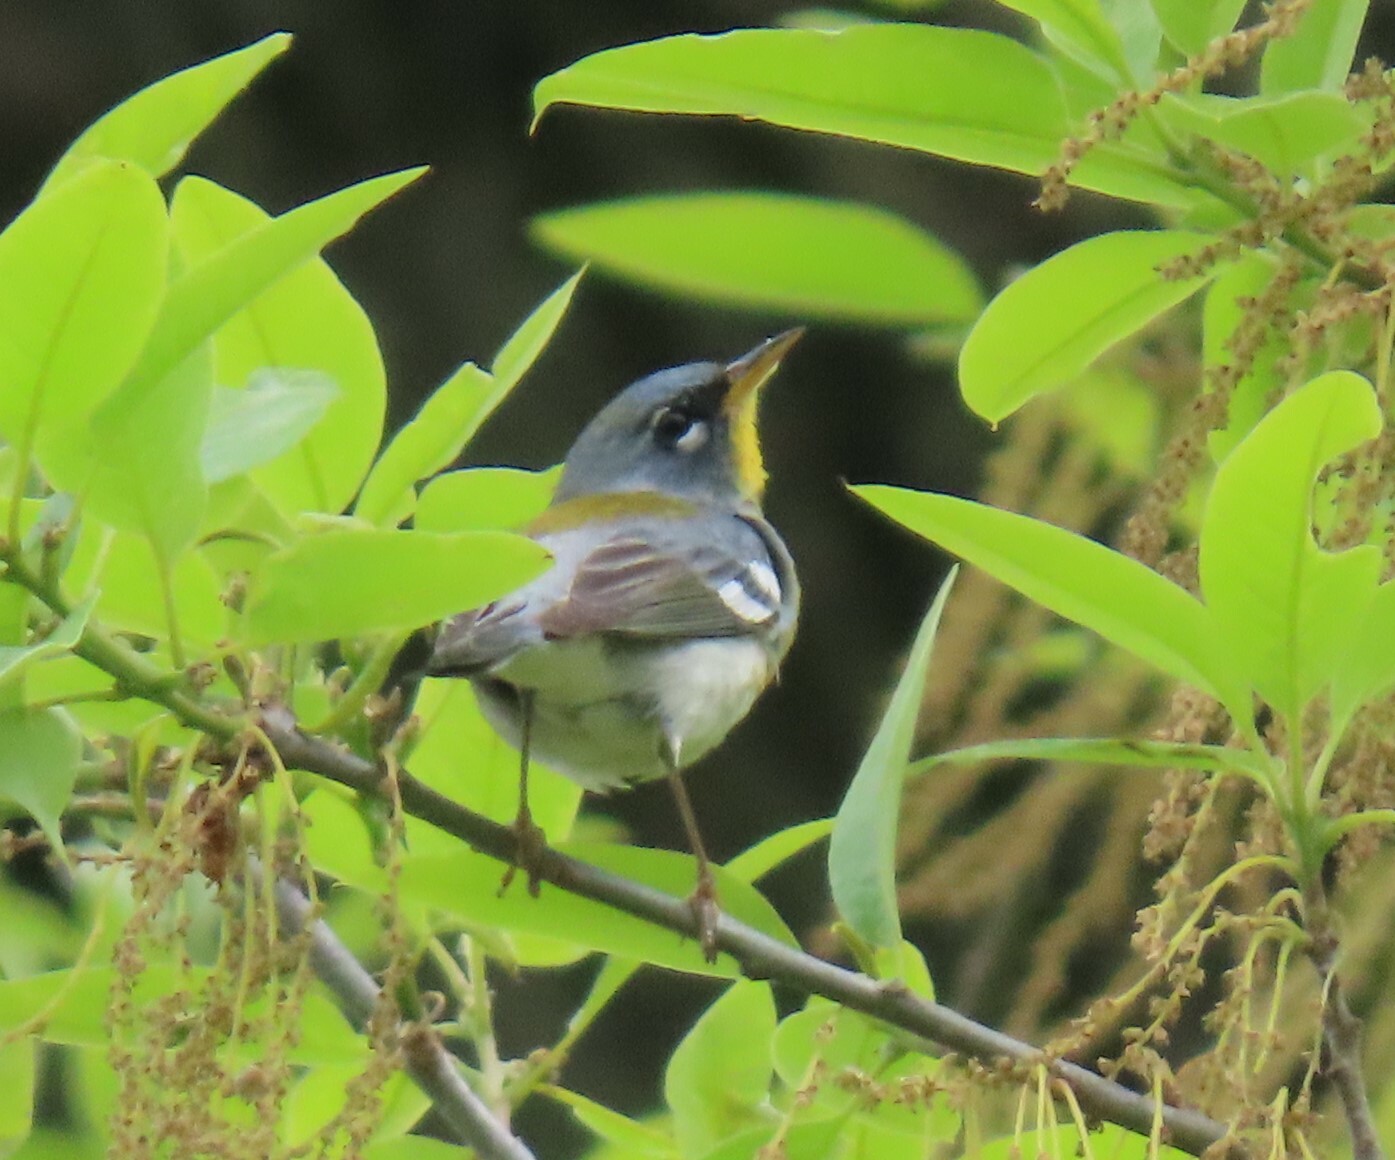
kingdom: Animalia
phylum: Chordata
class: Aves
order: Passeriformes
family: Parulidae
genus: Setophaga
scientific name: Setophaga americana
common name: Northern parula
